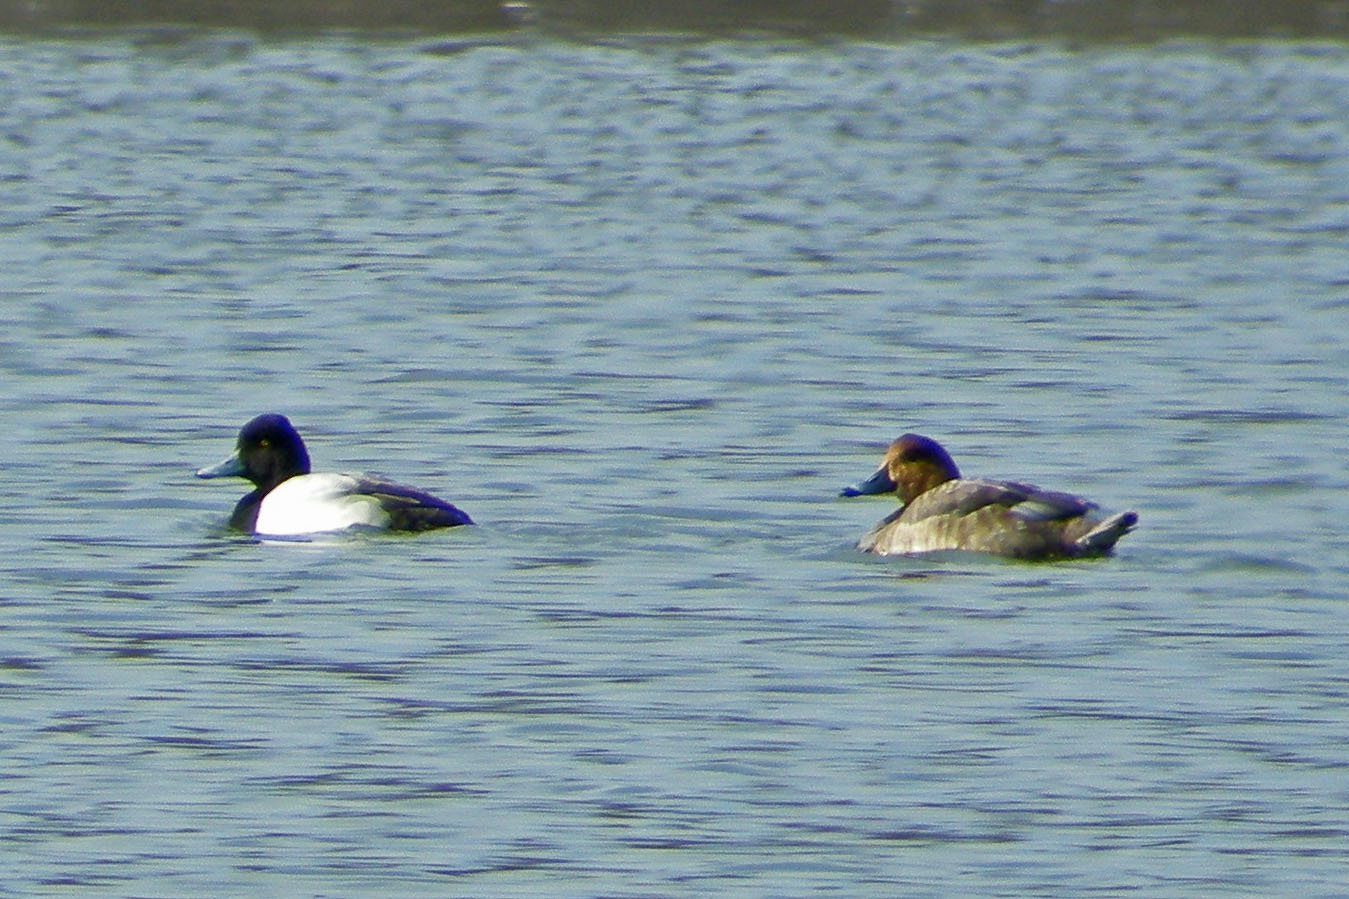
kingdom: Animalia
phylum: Chordata
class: Aves
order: Anseriformes
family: Anatidae
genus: Aythya
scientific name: Aythya americana
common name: Redhead
